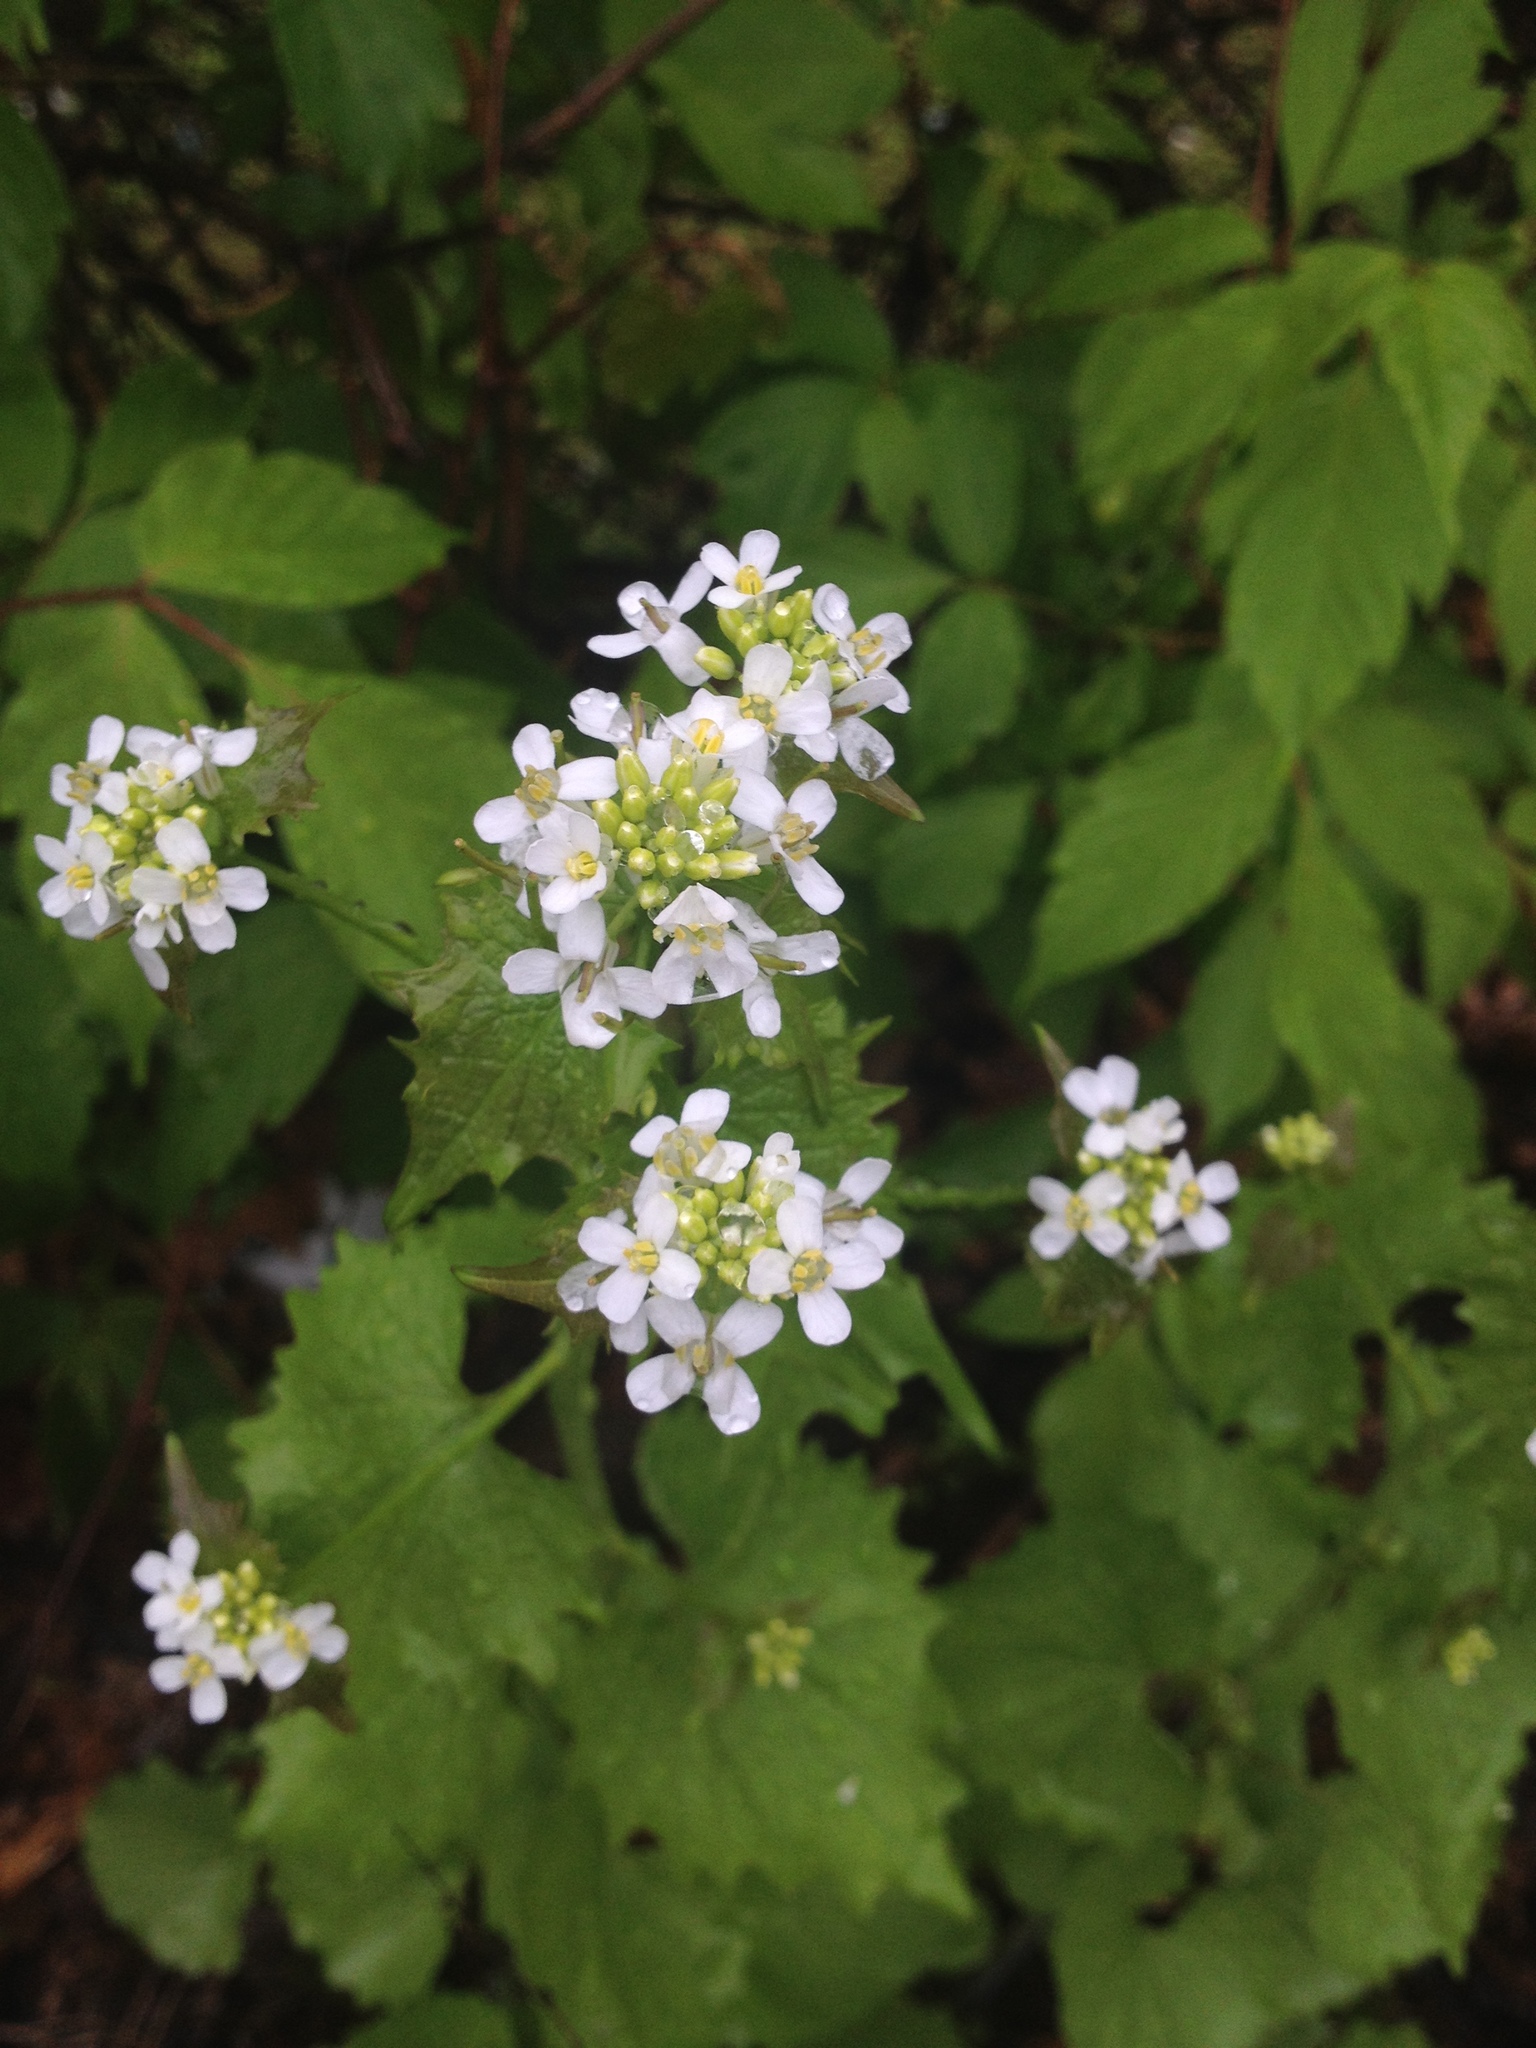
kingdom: Plantae
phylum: Tracheophyta
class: Magnoliopsida
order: Brassicales
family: Brassicaceae
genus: Alliaria
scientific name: Alliaria petiolata
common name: Garlic mustard
